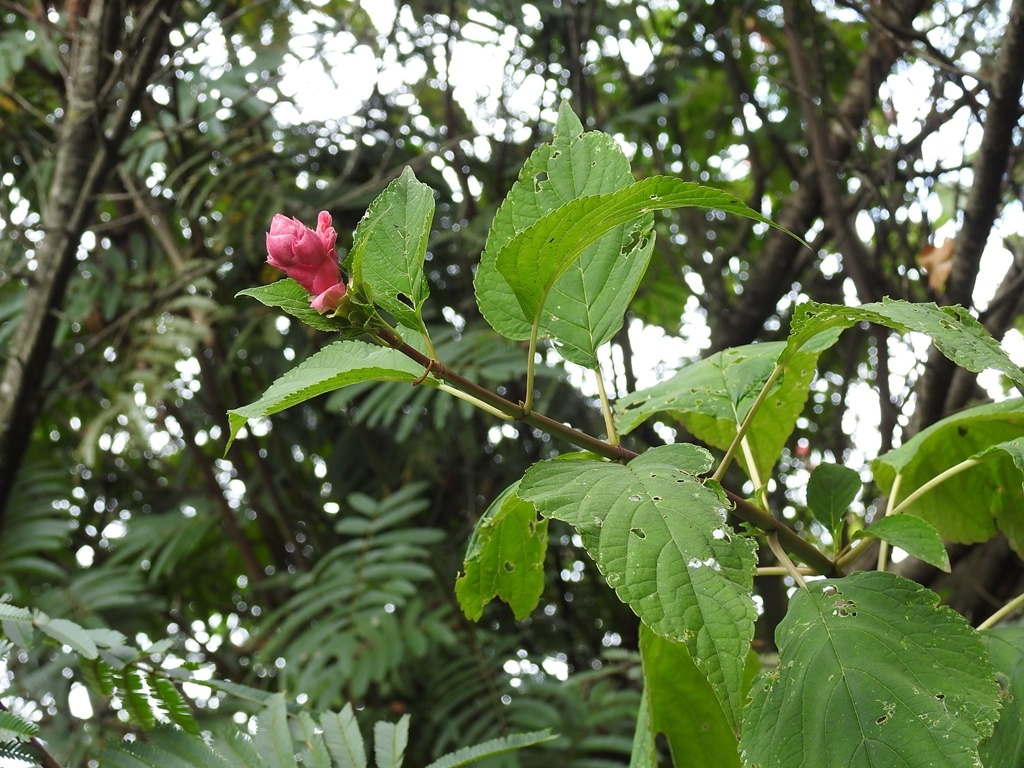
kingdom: Plantae
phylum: Tracheophyta
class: Magnoliopsida
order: Lamiales
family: Lamiaceae
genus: Salvia
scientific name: Salvia wagneriana
